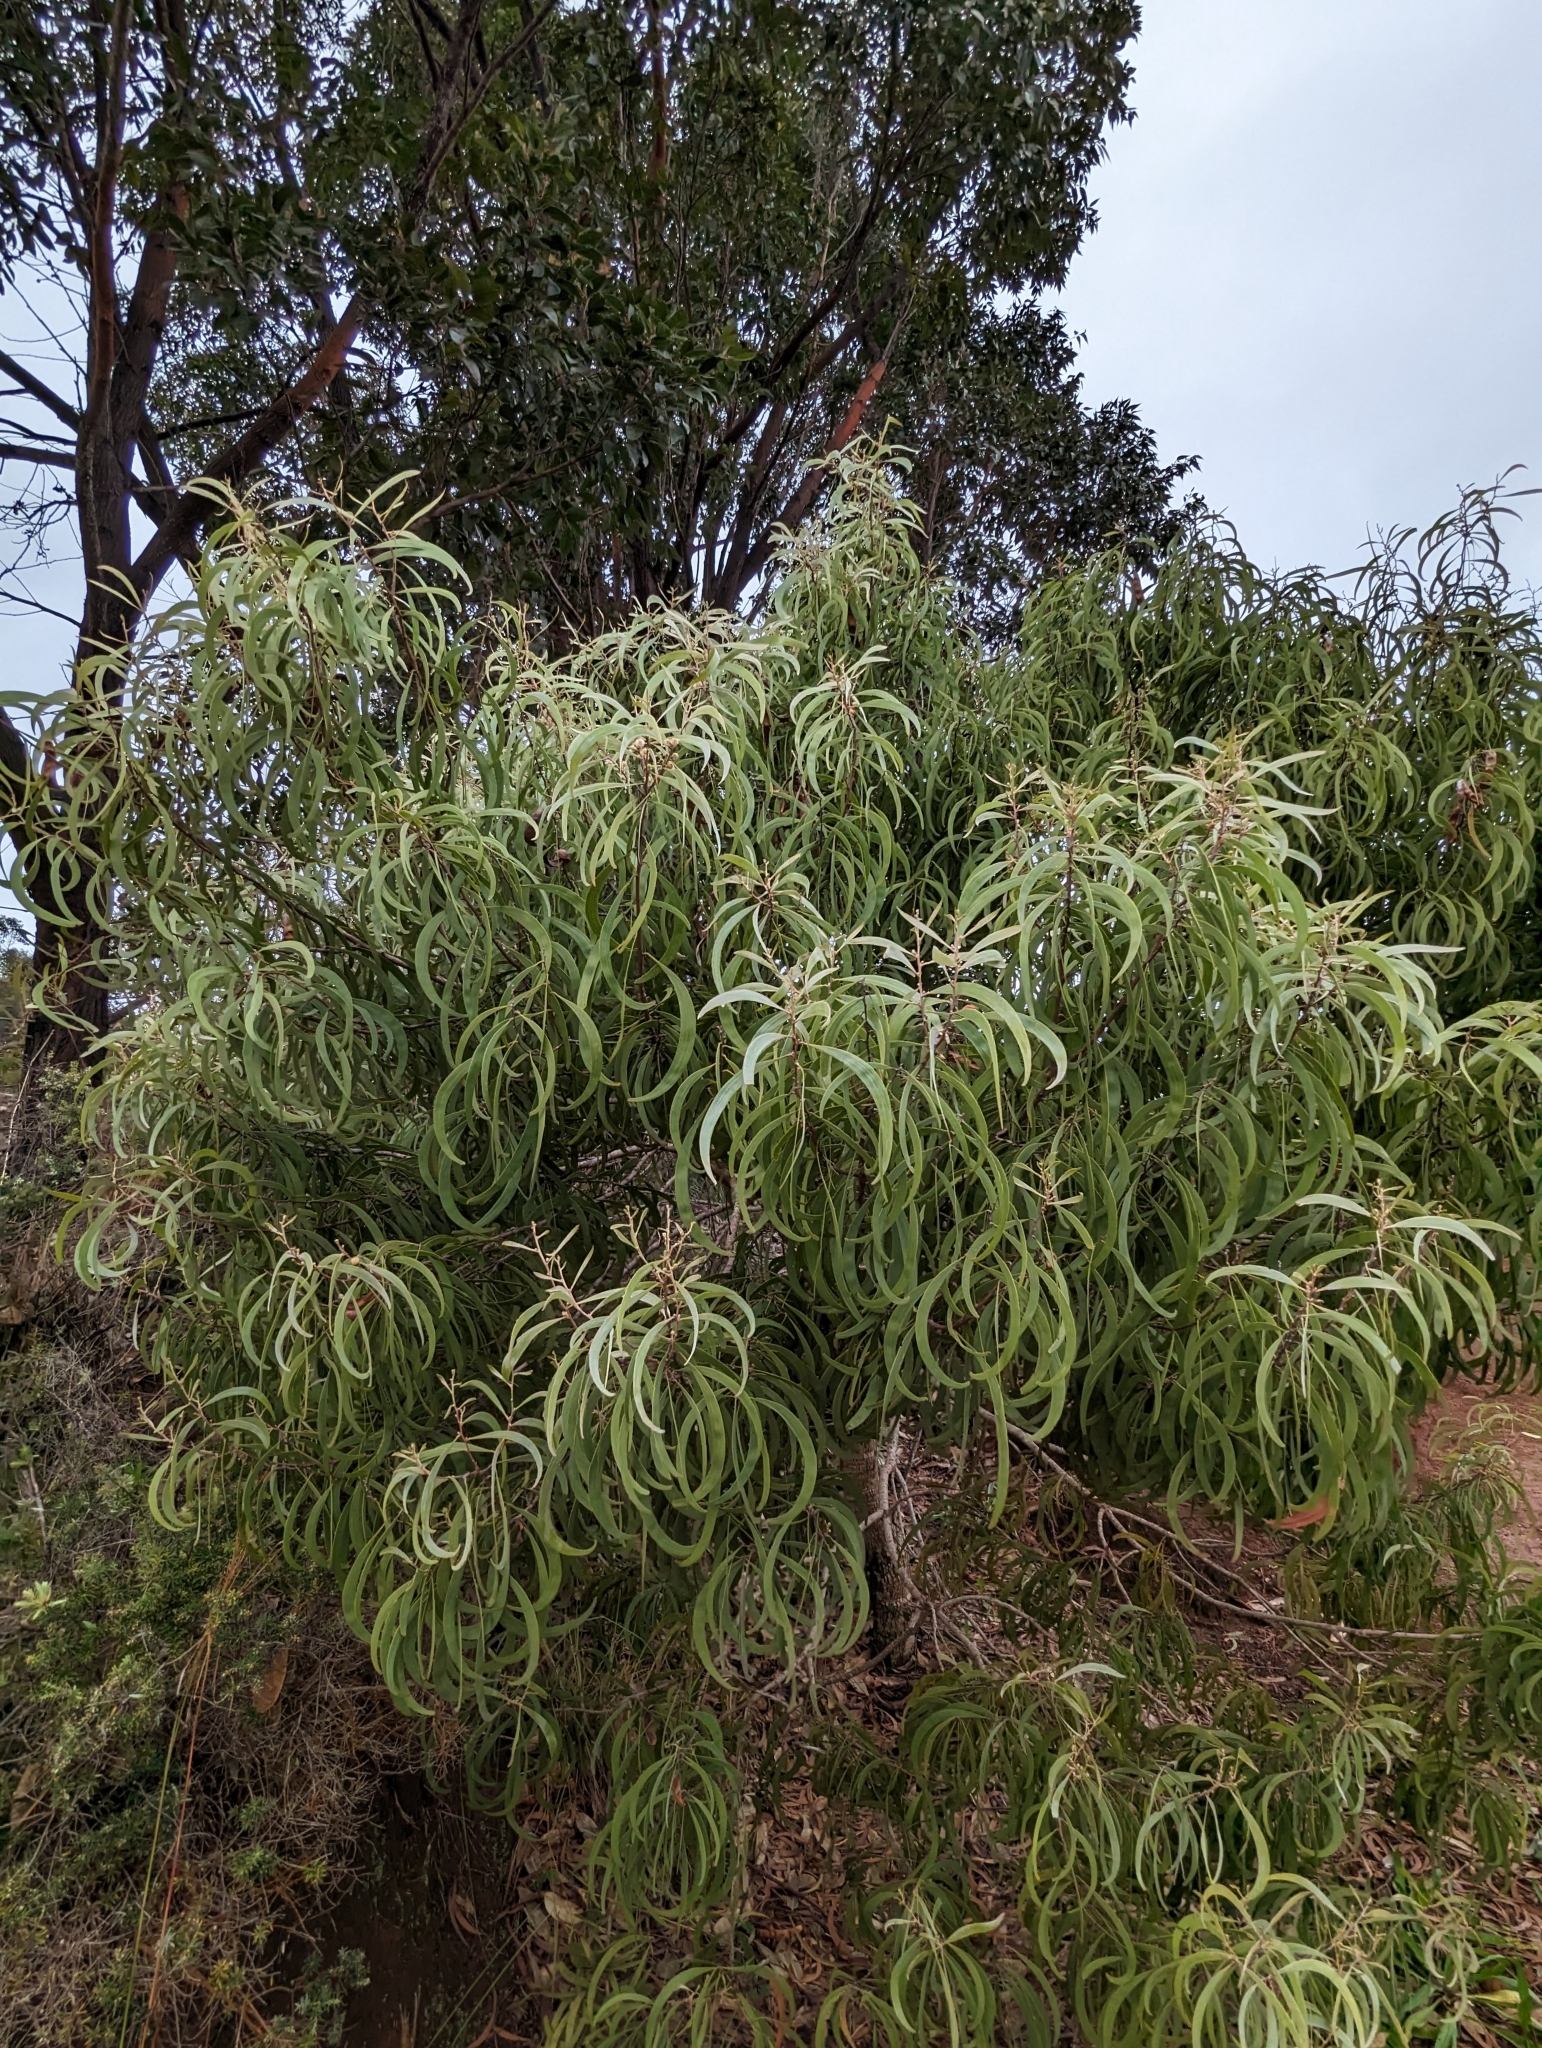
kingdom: Plantae
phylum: Tracheophyta
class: Magnoliopsida
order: Fabales
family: Fabaceae
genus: Acacia
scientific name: Acacia koa
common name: Gray koa
